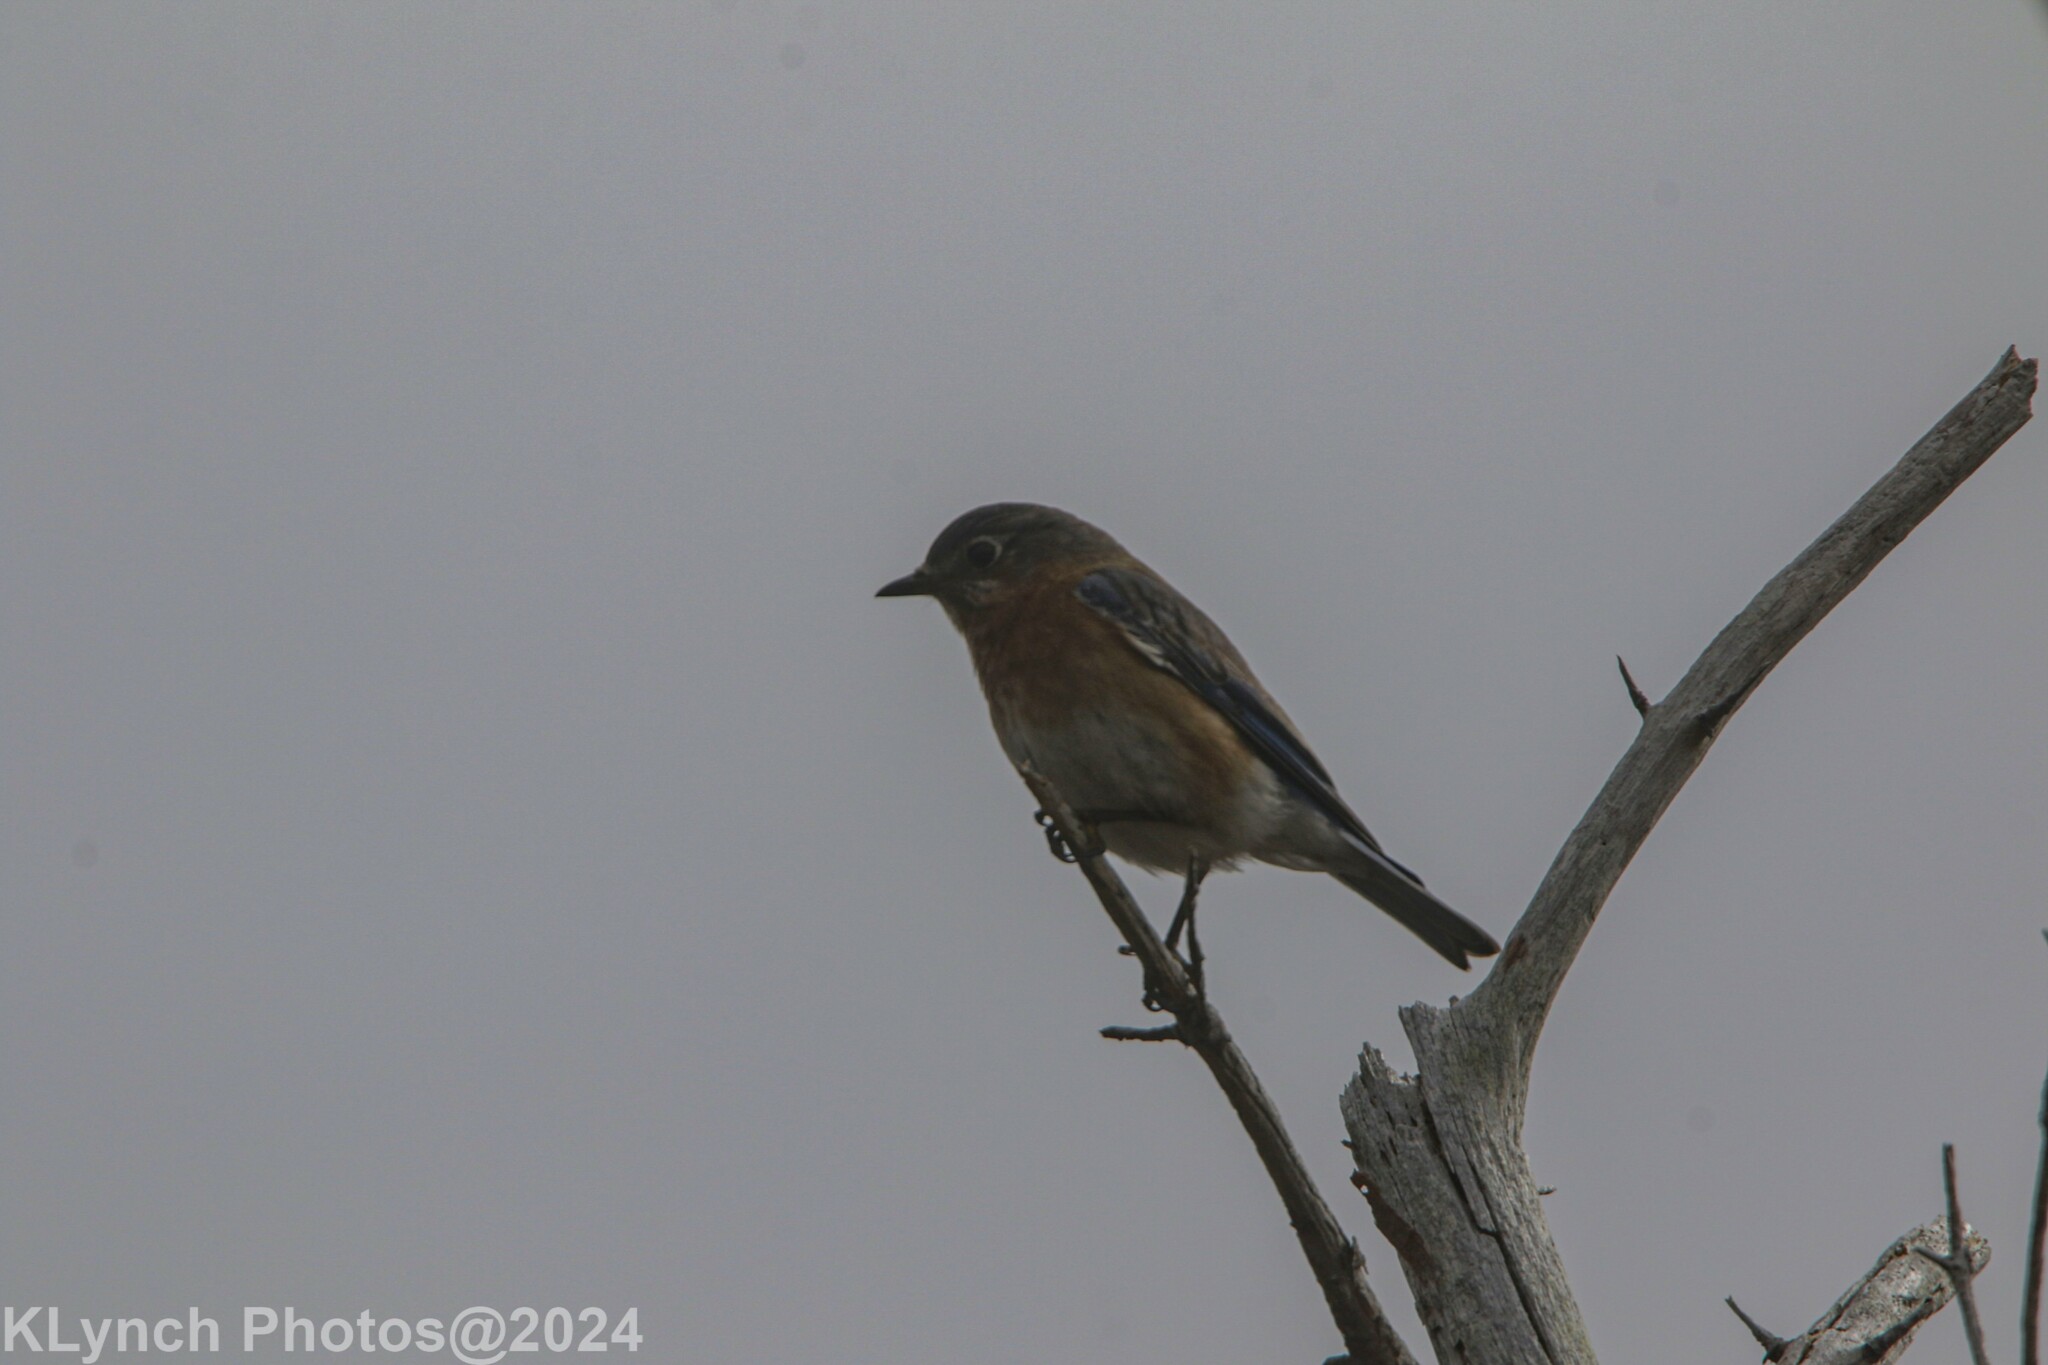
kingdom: Animalia
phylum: Chordata
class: Aves
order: Passeriformes
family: Turdidae
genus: Sialia
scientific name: Sialia sialis
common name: Eastern bluebird
